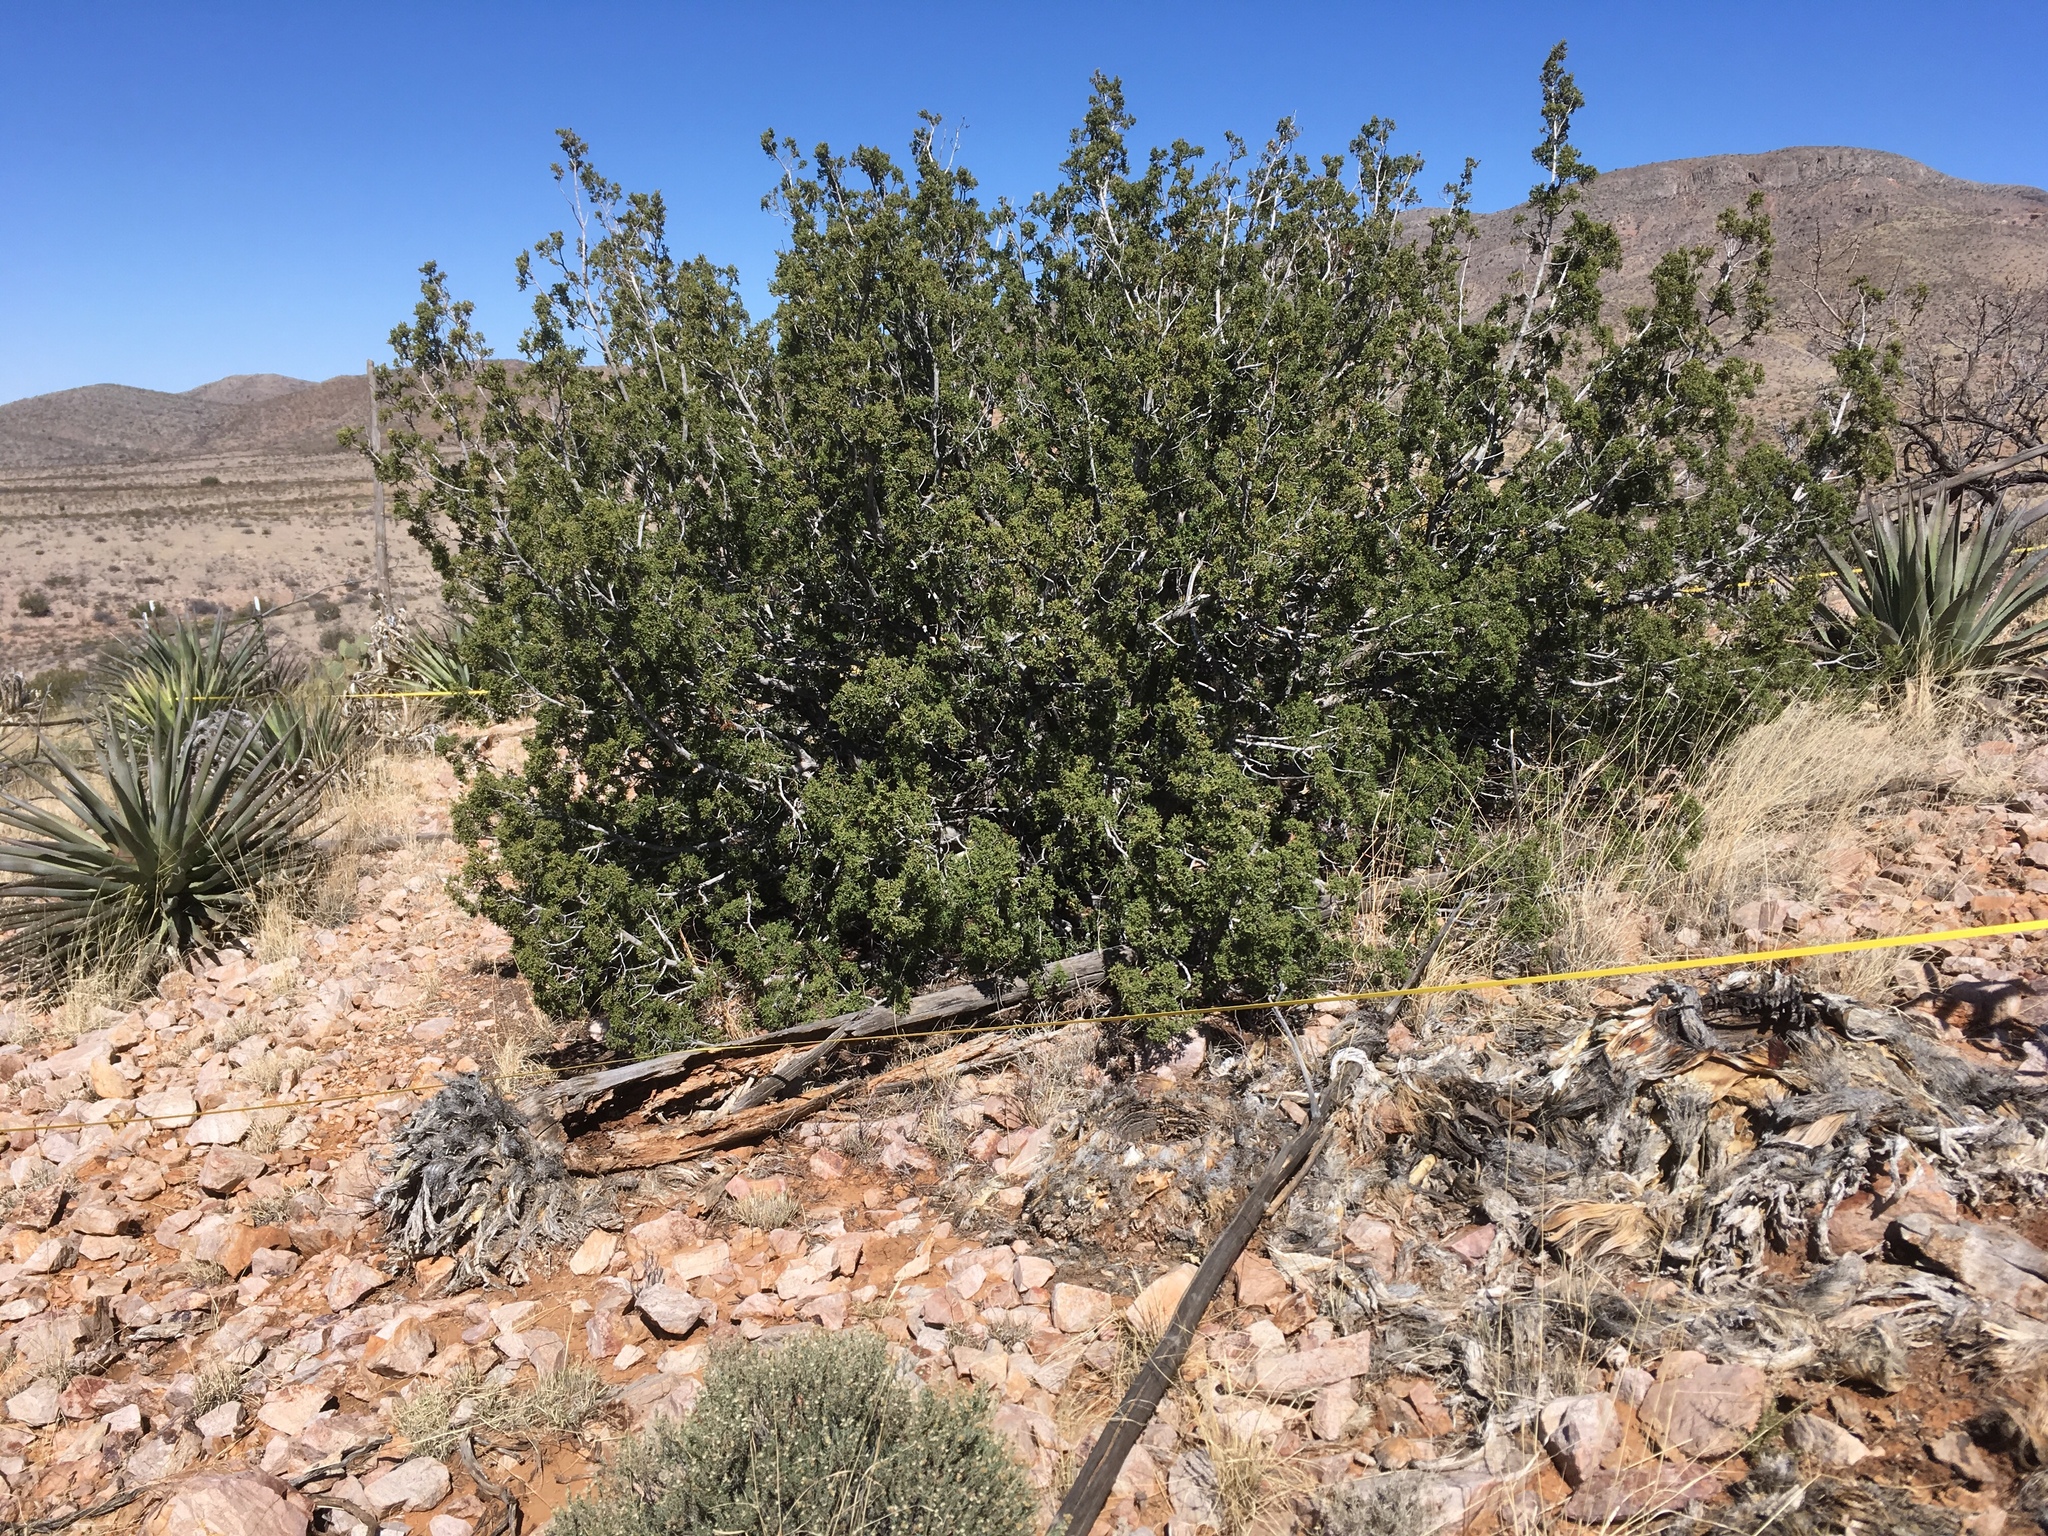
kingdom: Plantae
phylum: Tracheophyta
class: Pinopsida
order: Pinales
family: Cupressaceae
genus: Juniperus
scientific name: Juniperus arizonica
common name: Arizona juniper
